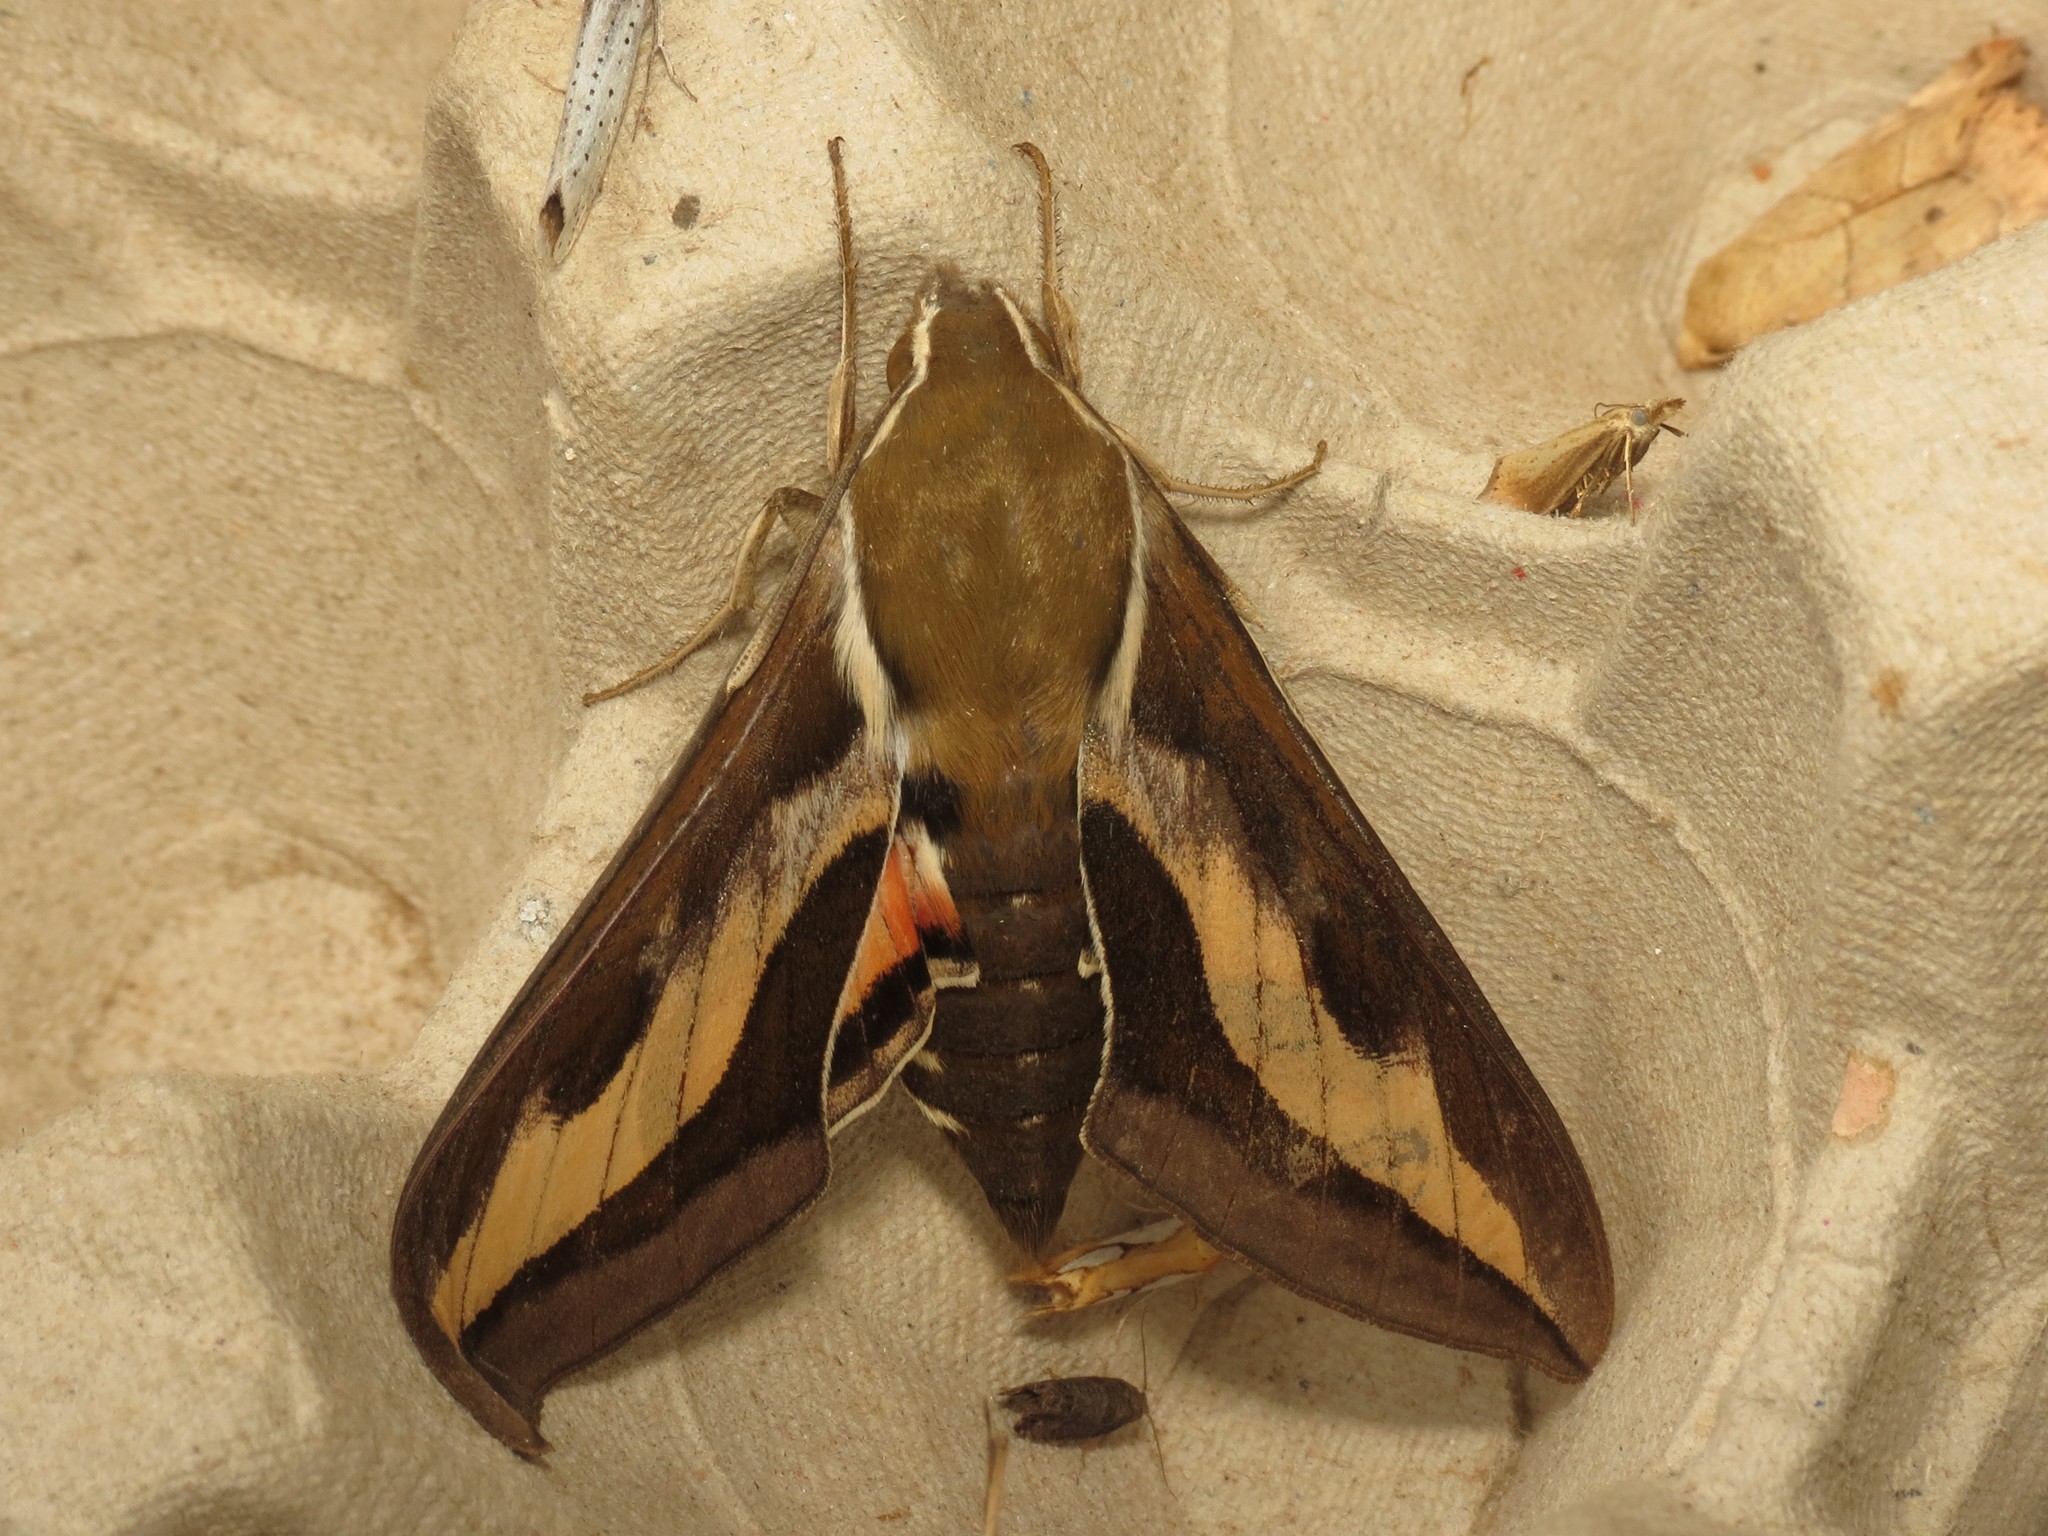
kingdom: Animalia
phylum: Arthropoda
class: Insecta
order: Lepidoptera
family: Sphingidae
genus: Hyles
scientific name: Hyles gallii
